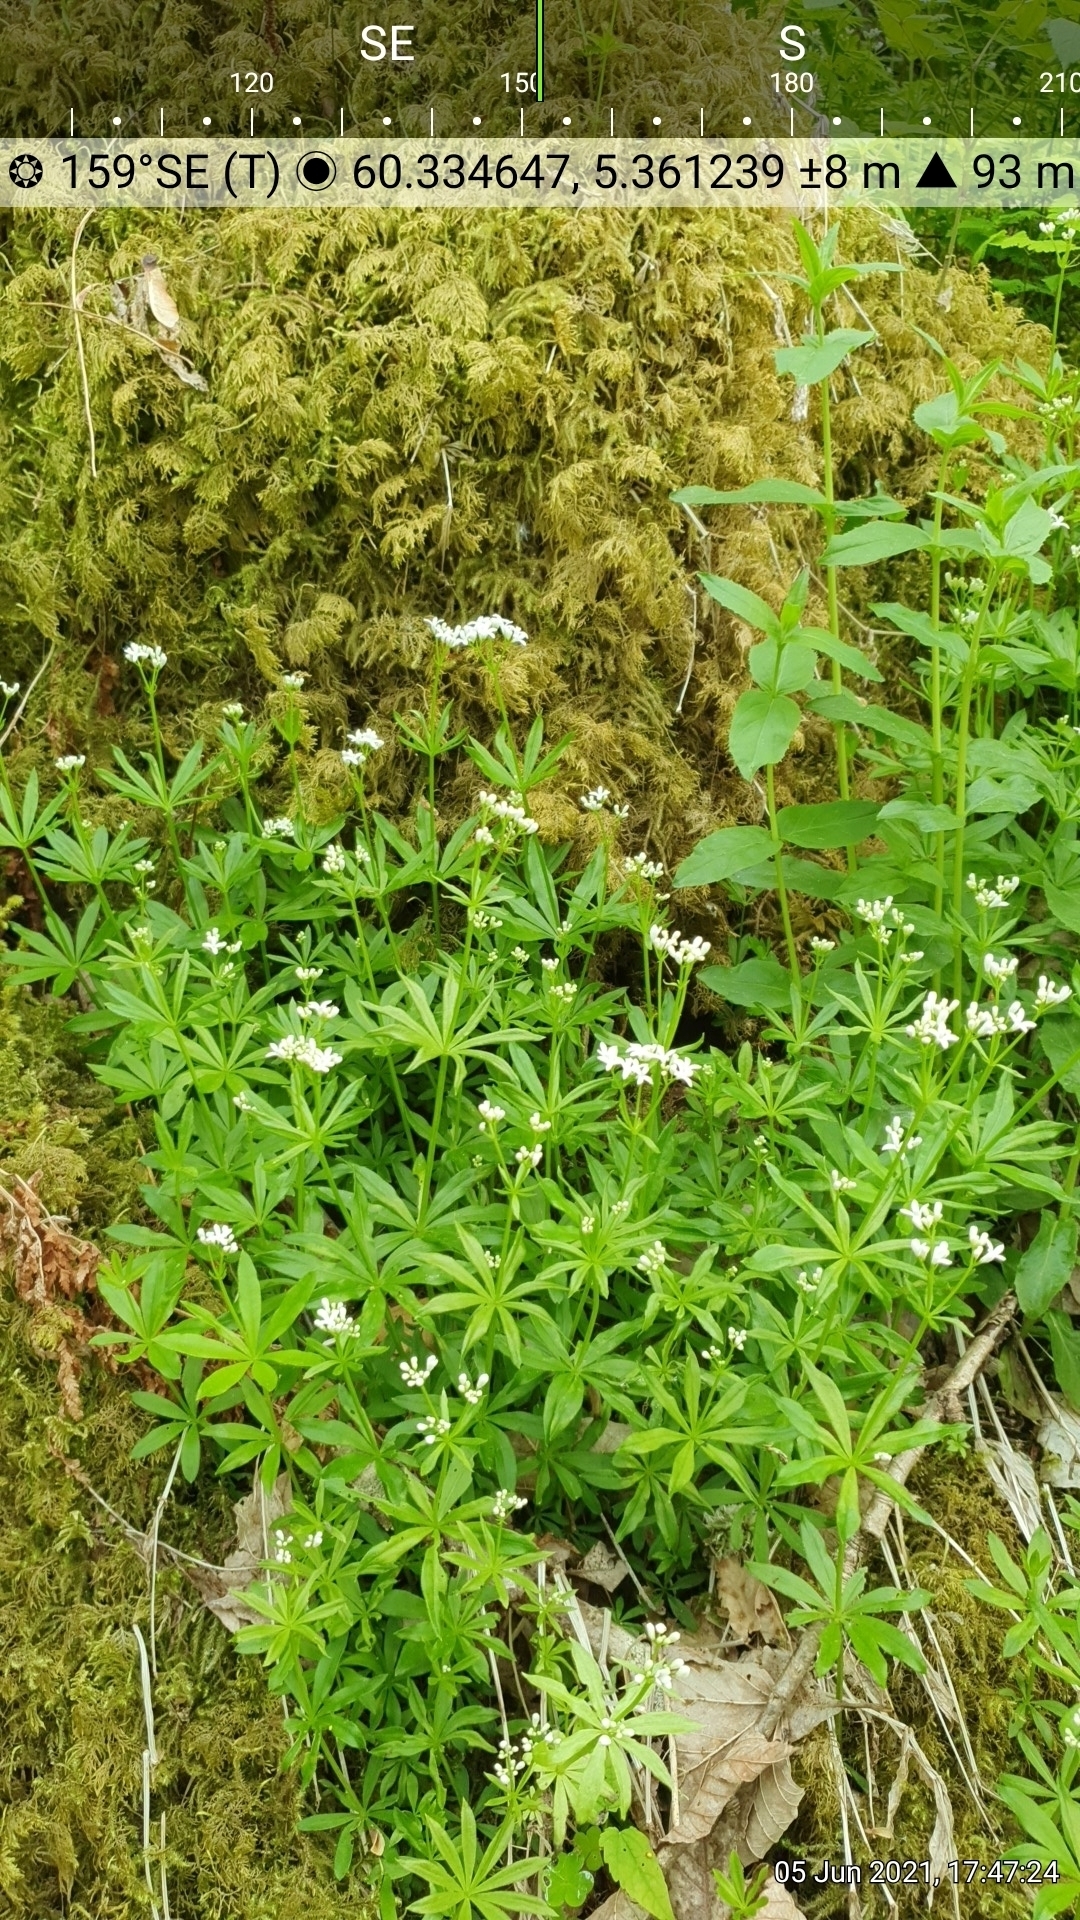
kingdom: Plantae
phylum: Tracheophyta
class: Magnoliopsida
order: Gentianales
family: Rubiaceae
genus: Galium
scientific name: Galium odoratum
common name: Sweet woodruff
